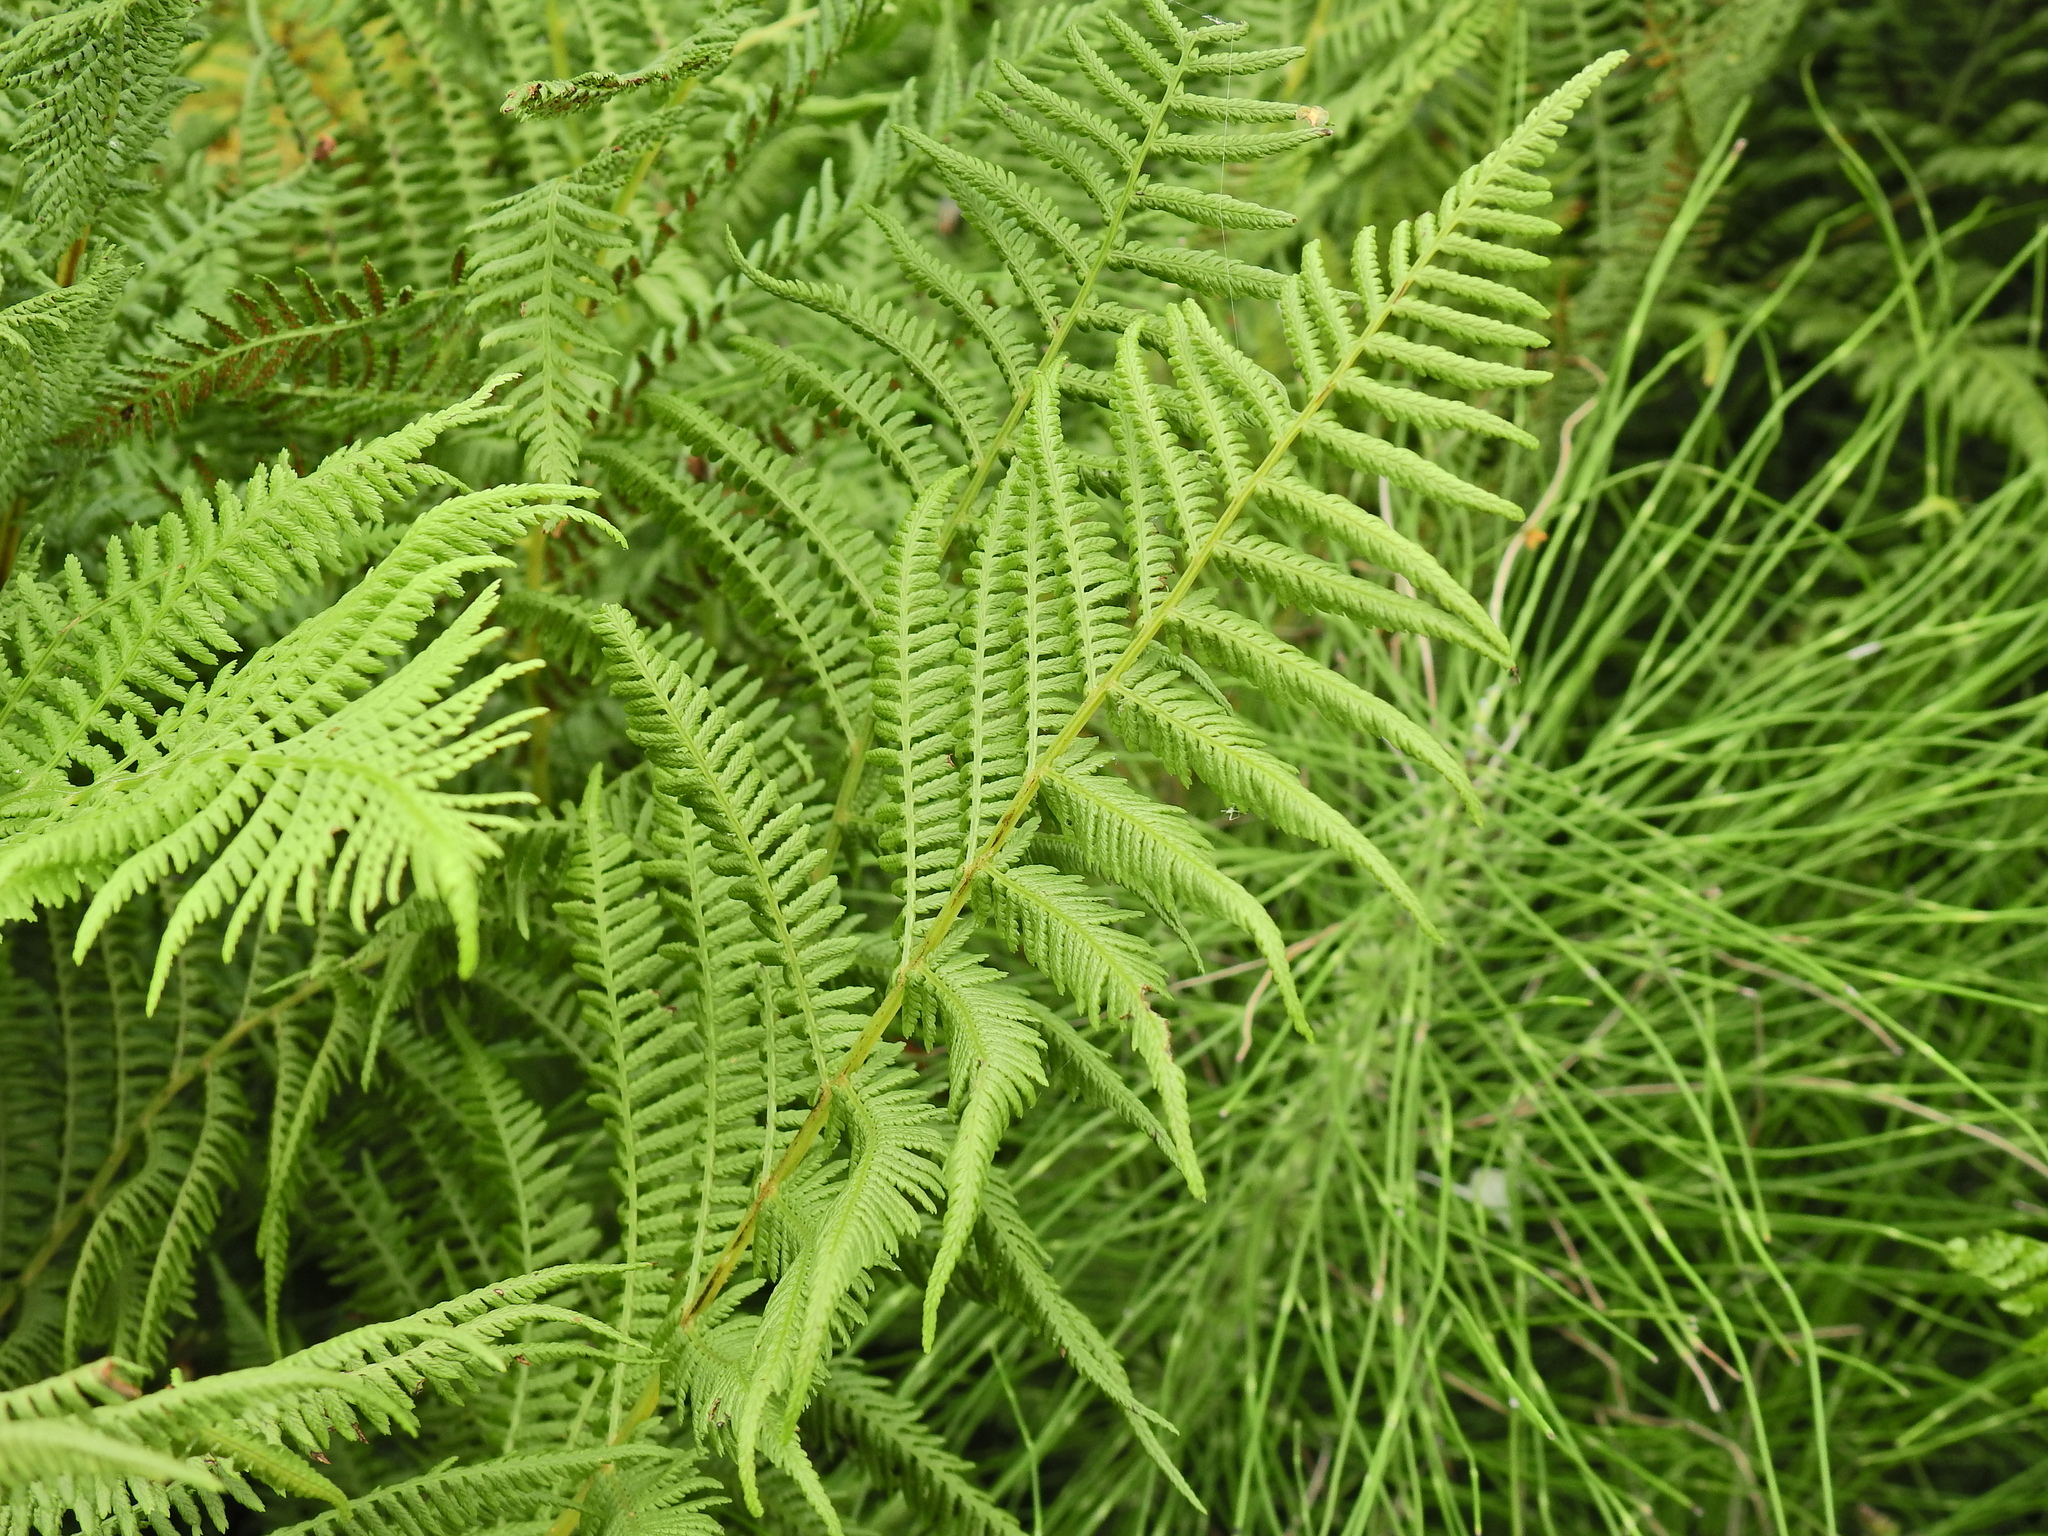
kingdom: Plantae
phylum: Tracheophyta
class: Polypodiopsida
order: Polypodiales
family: Athyriaceae
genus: Athyrium
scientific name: Athyrium filix-femina
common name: Lady fern
